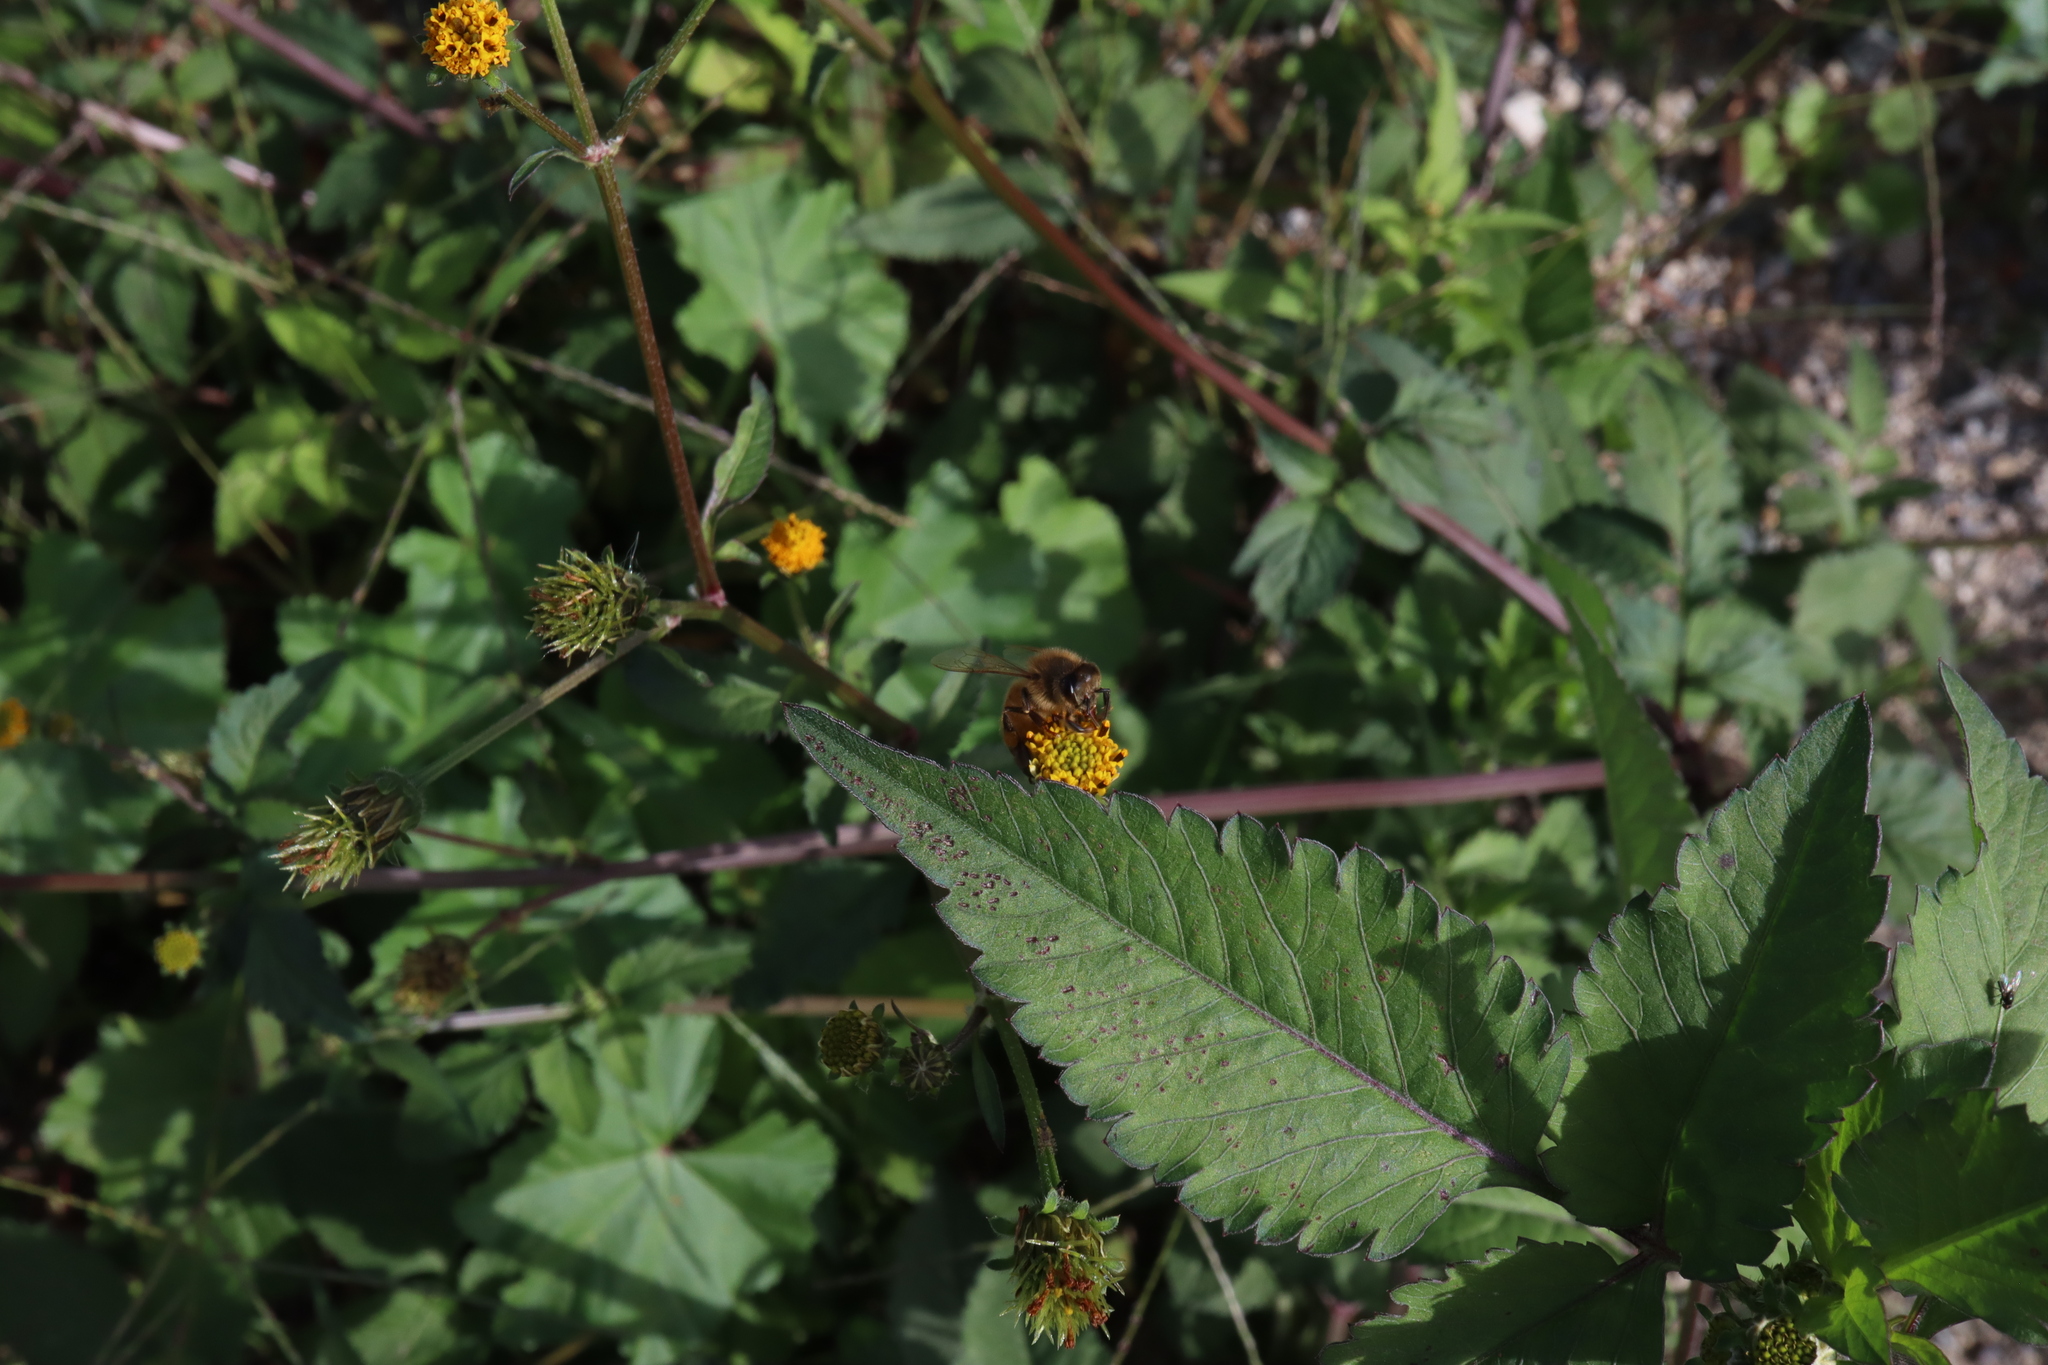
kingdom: Animalia
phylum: Arthropoda
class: Insecta
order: Hymenoptera
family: Apidae
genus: Apis
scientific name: Apis mellifera
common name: Honey bee
